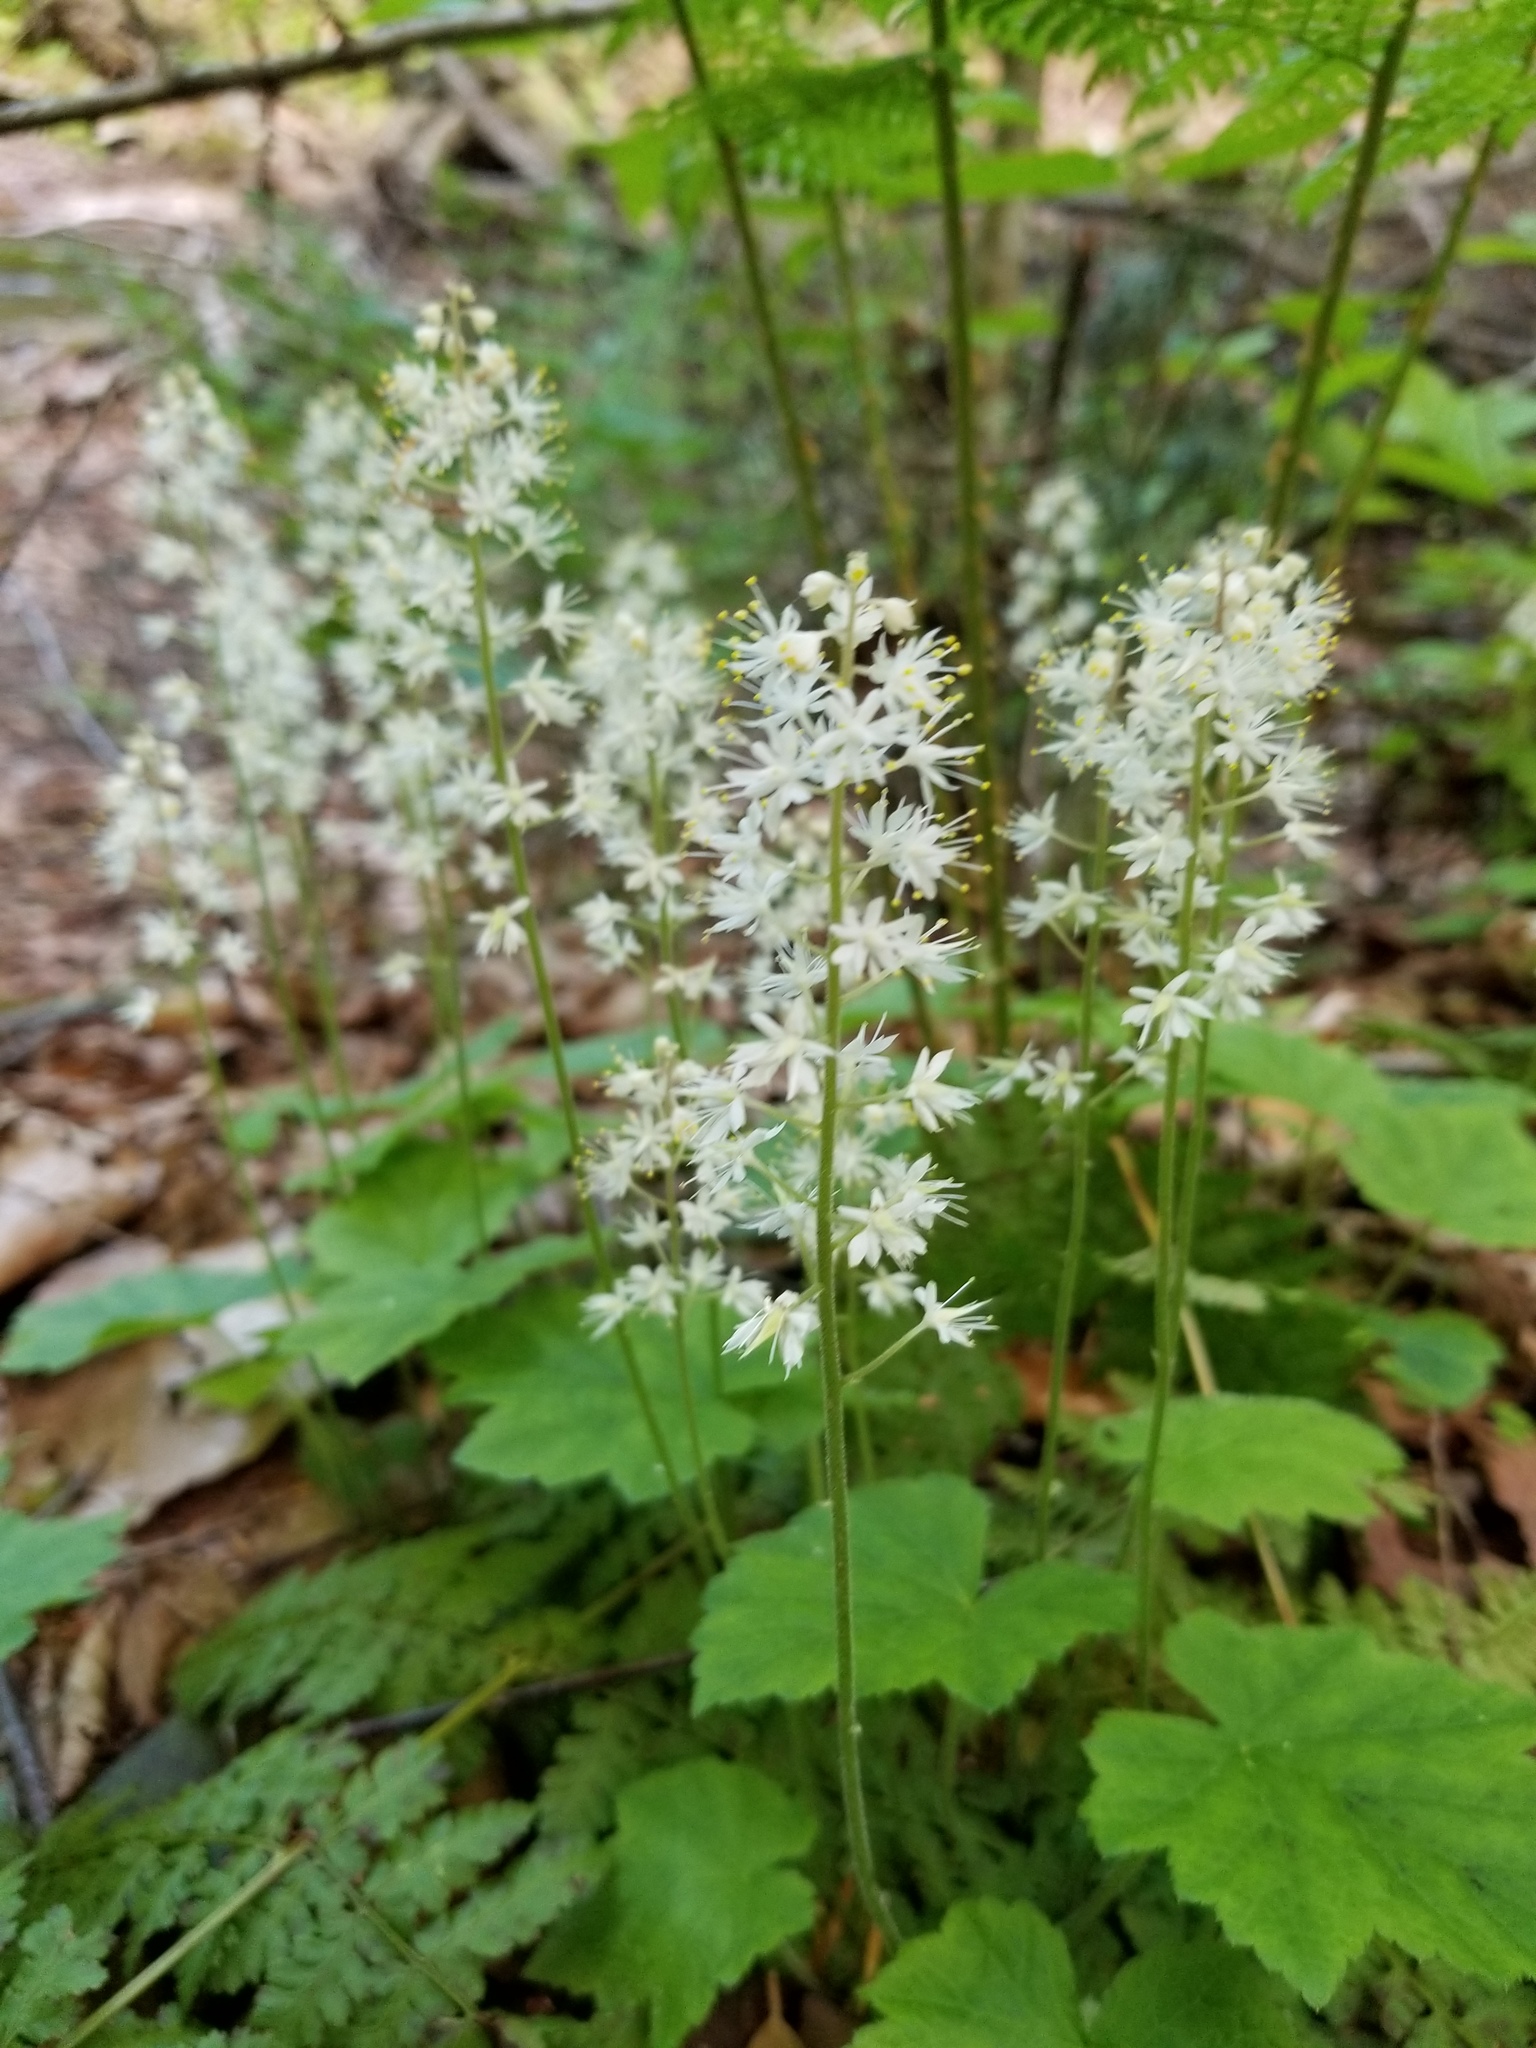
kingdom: Plantae
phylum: Tracheophyta
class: Magnoliopsida
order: Saxifragales
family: Saxifragaceae
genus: Tiarella
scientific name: Tiarella stolonifera
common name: Stoloniferous foamflower
